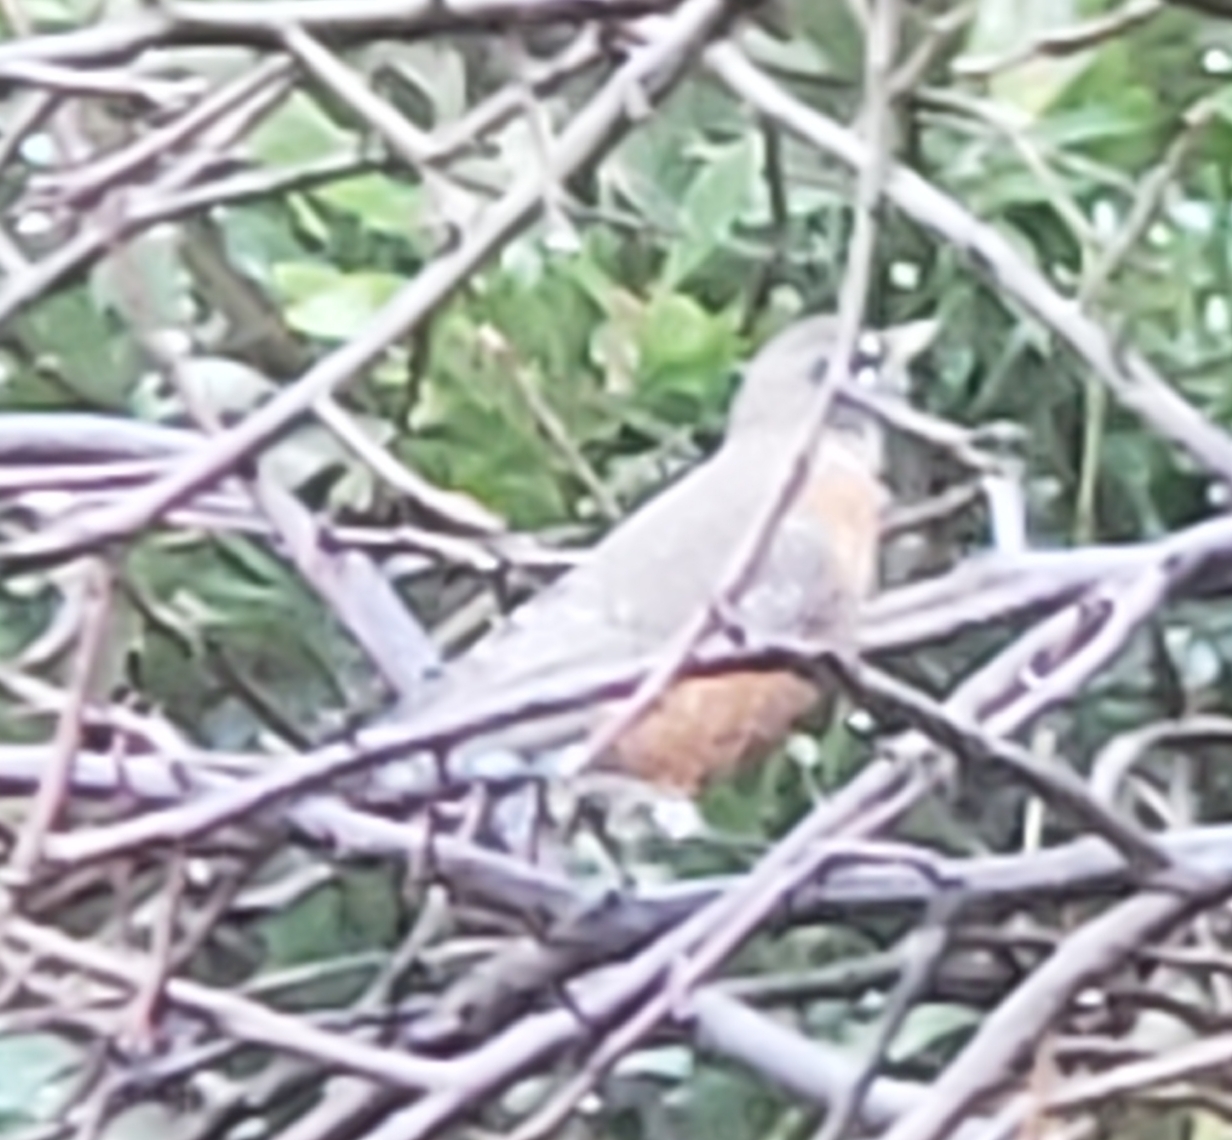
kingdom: Animalia
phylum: Chordata
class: Aves
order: Passeriformes
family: Turdidae
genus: Turdus
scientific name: Turdus migratorius
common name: American robin
